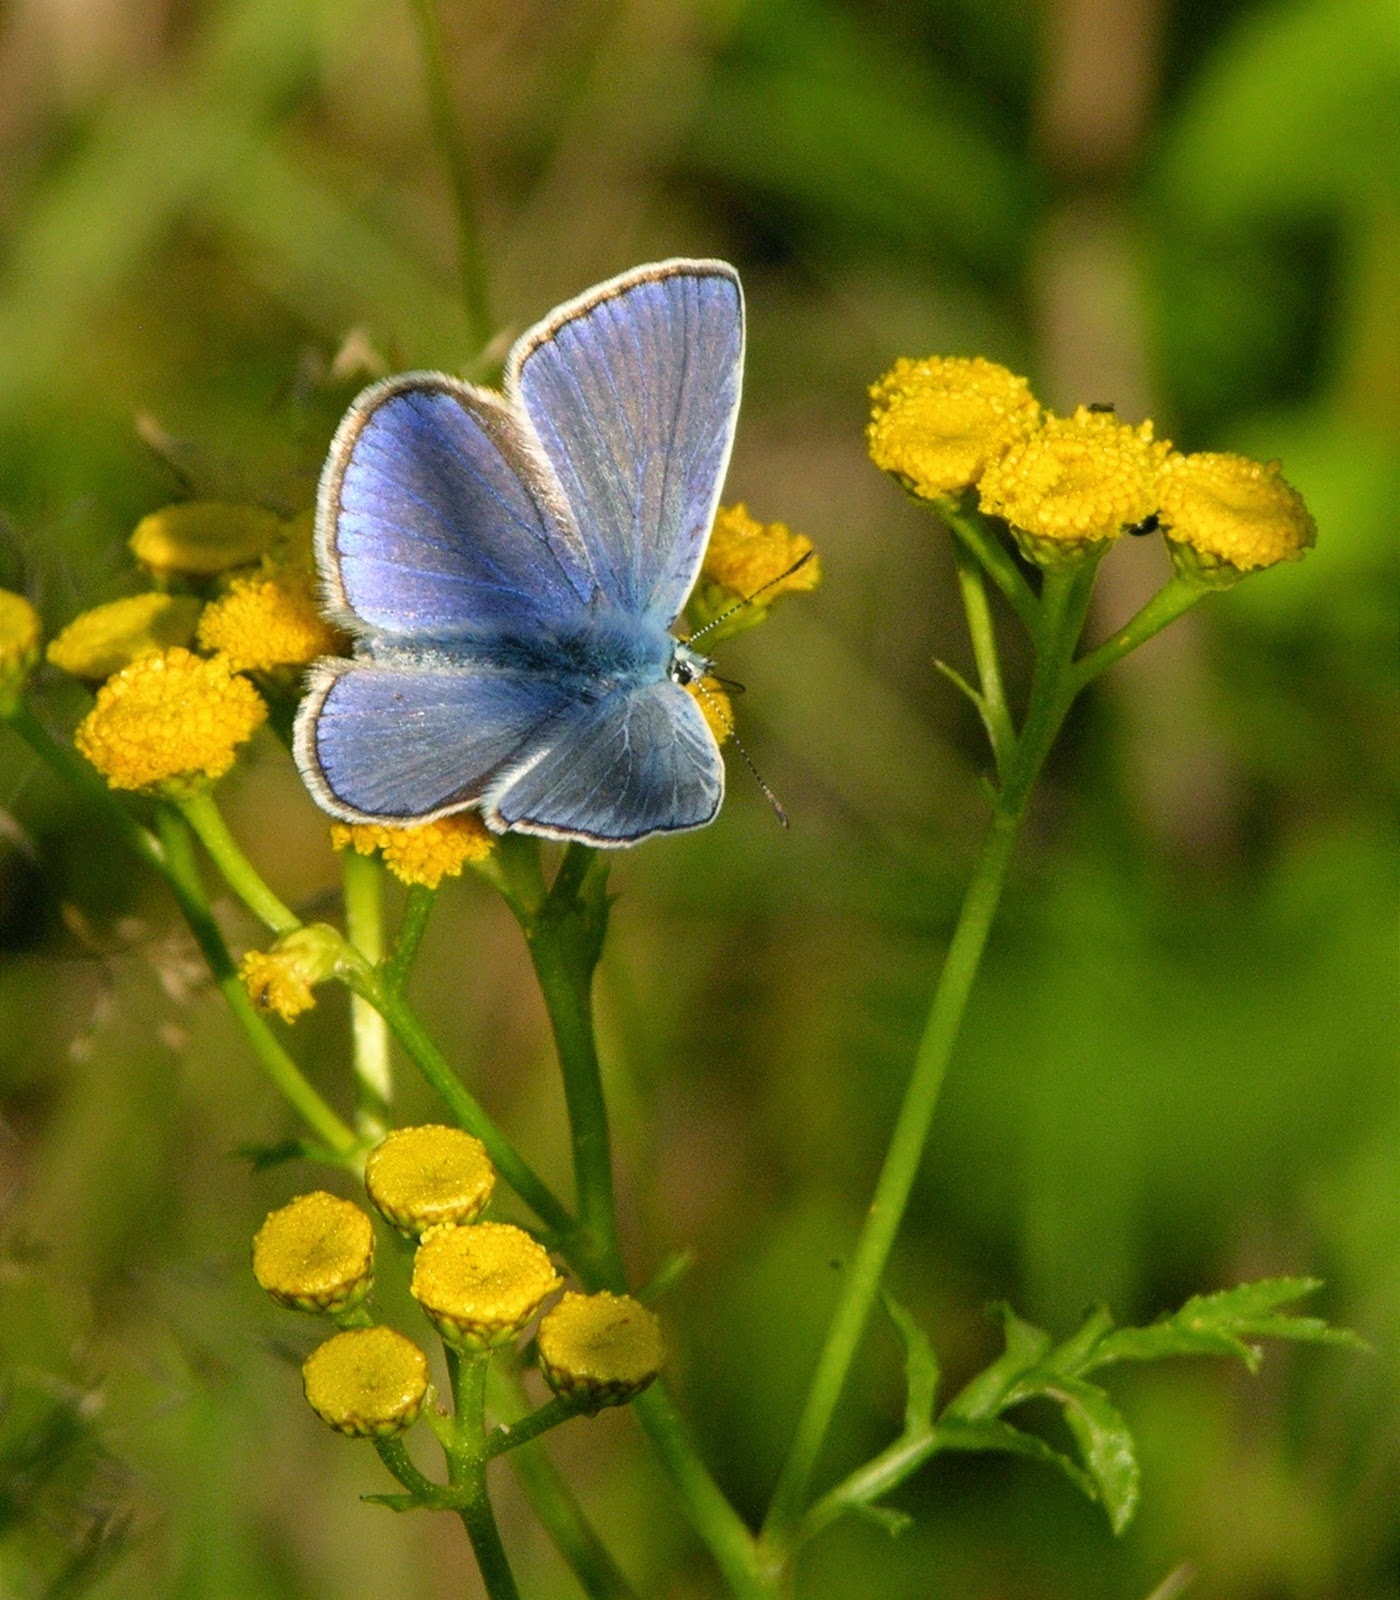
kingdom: Animalia
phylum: Arthropoda
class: Insecta
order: Lepidoptera
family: Lycaenidae
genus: Polyommatus
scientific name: Polyommatus icarus
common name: Common blue
